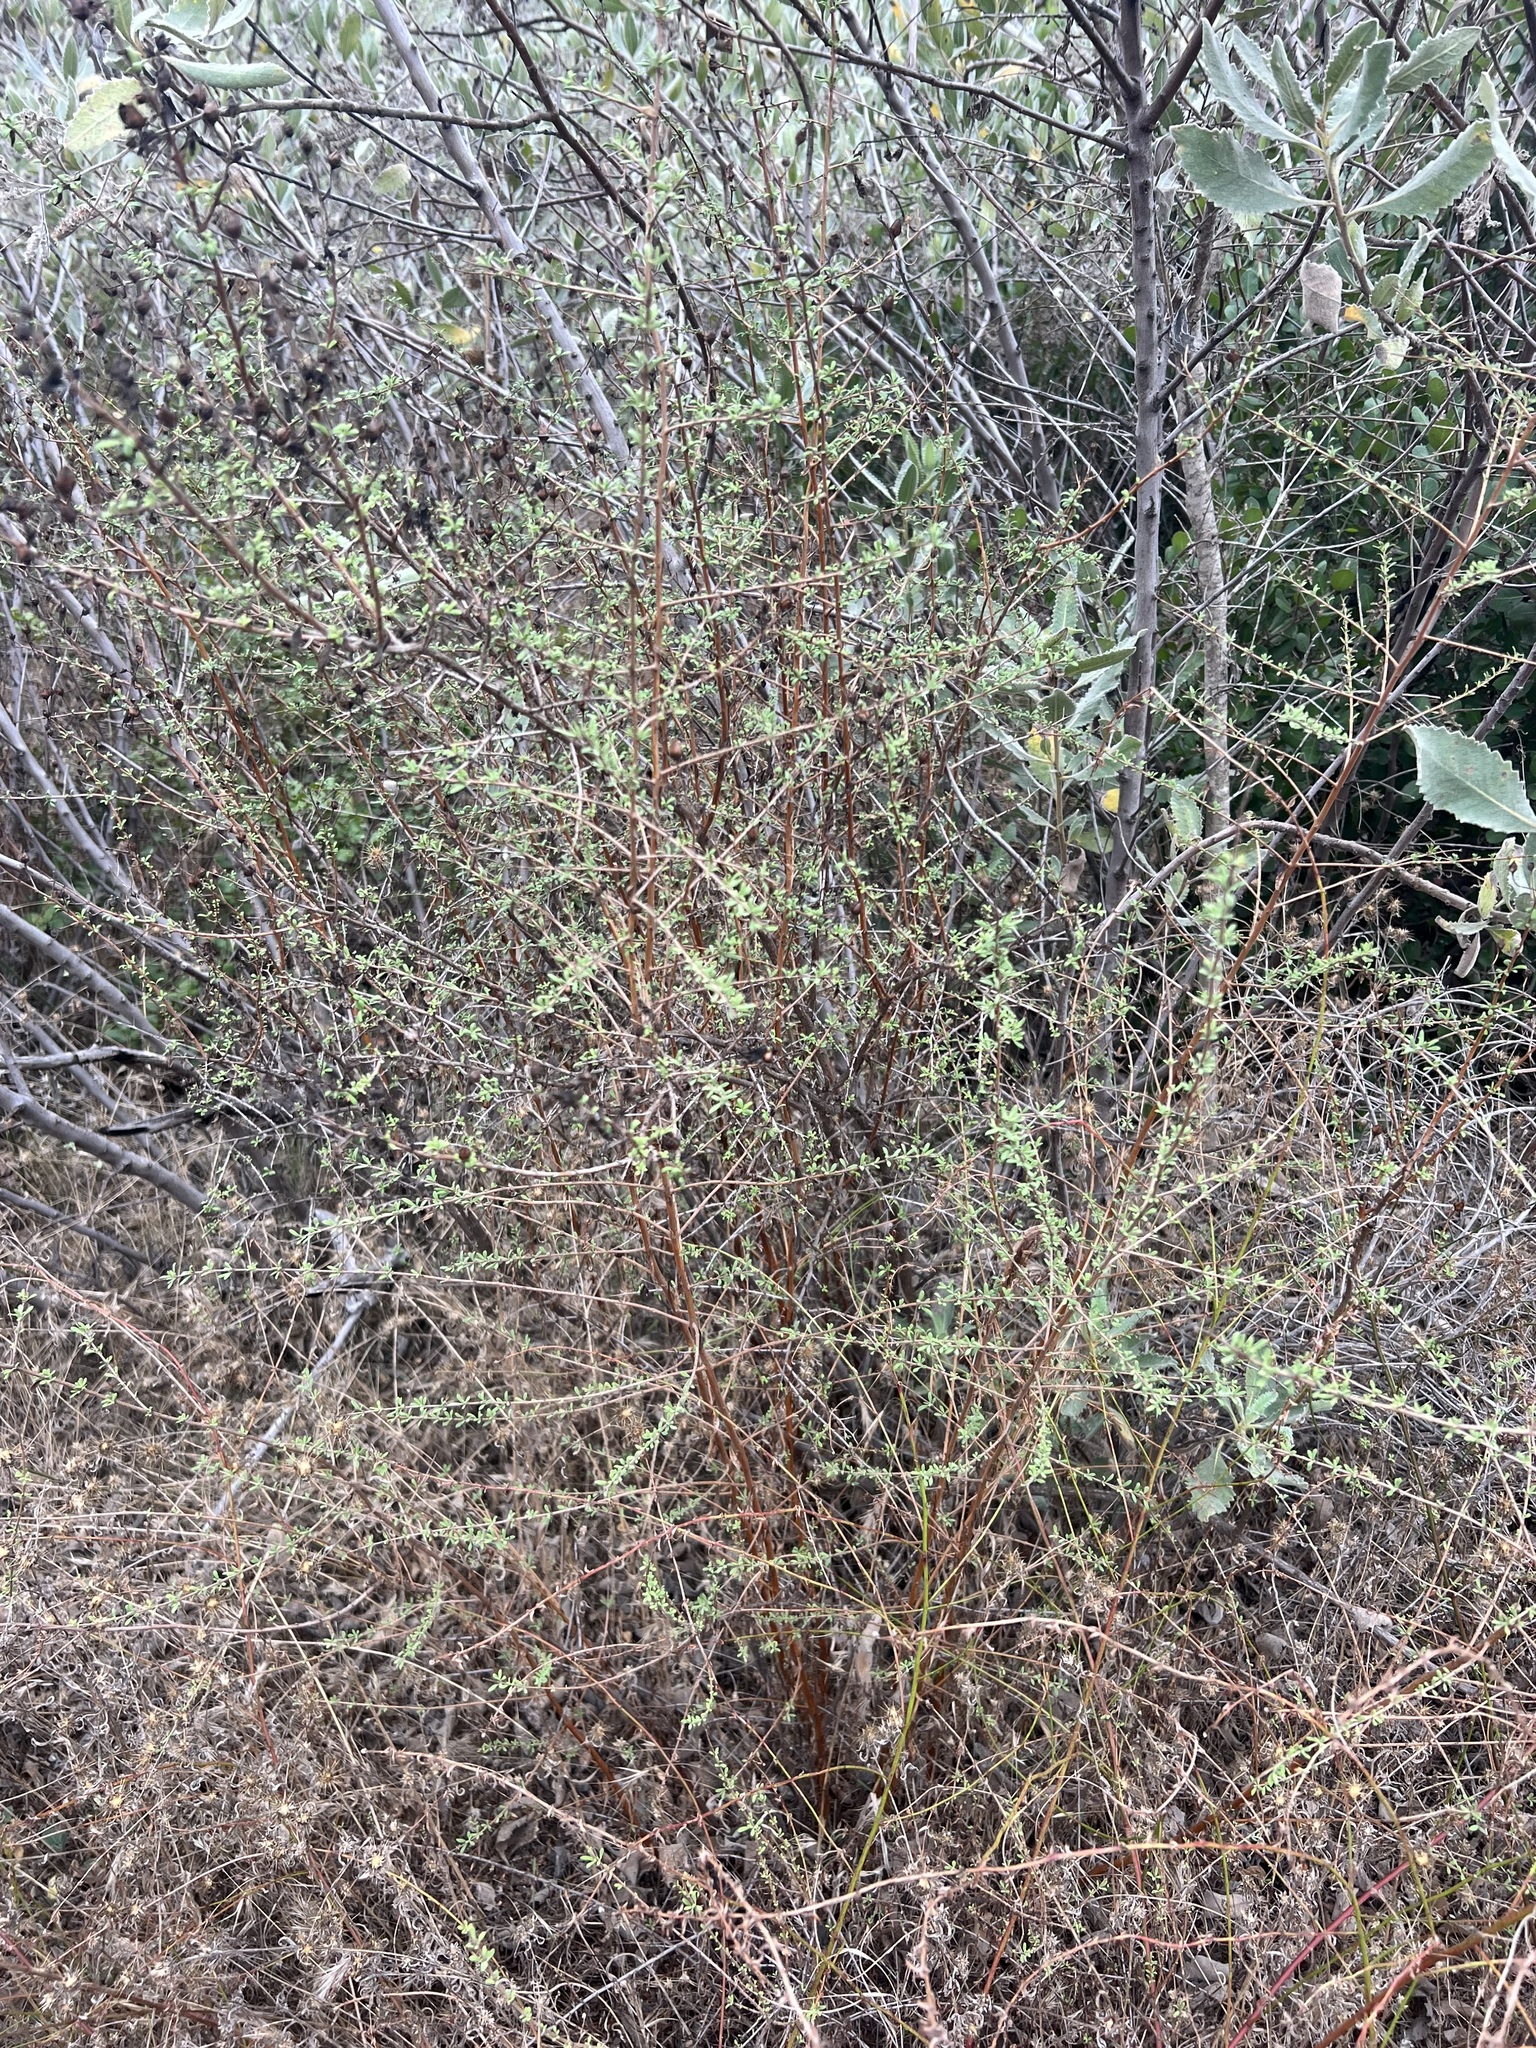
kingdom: Plantae
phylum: Tracheophyta
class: Magnoliopsida
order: Lamiales
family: Plantaginaceae
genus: Keckiella
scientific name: Keckiella antirrhinoides
